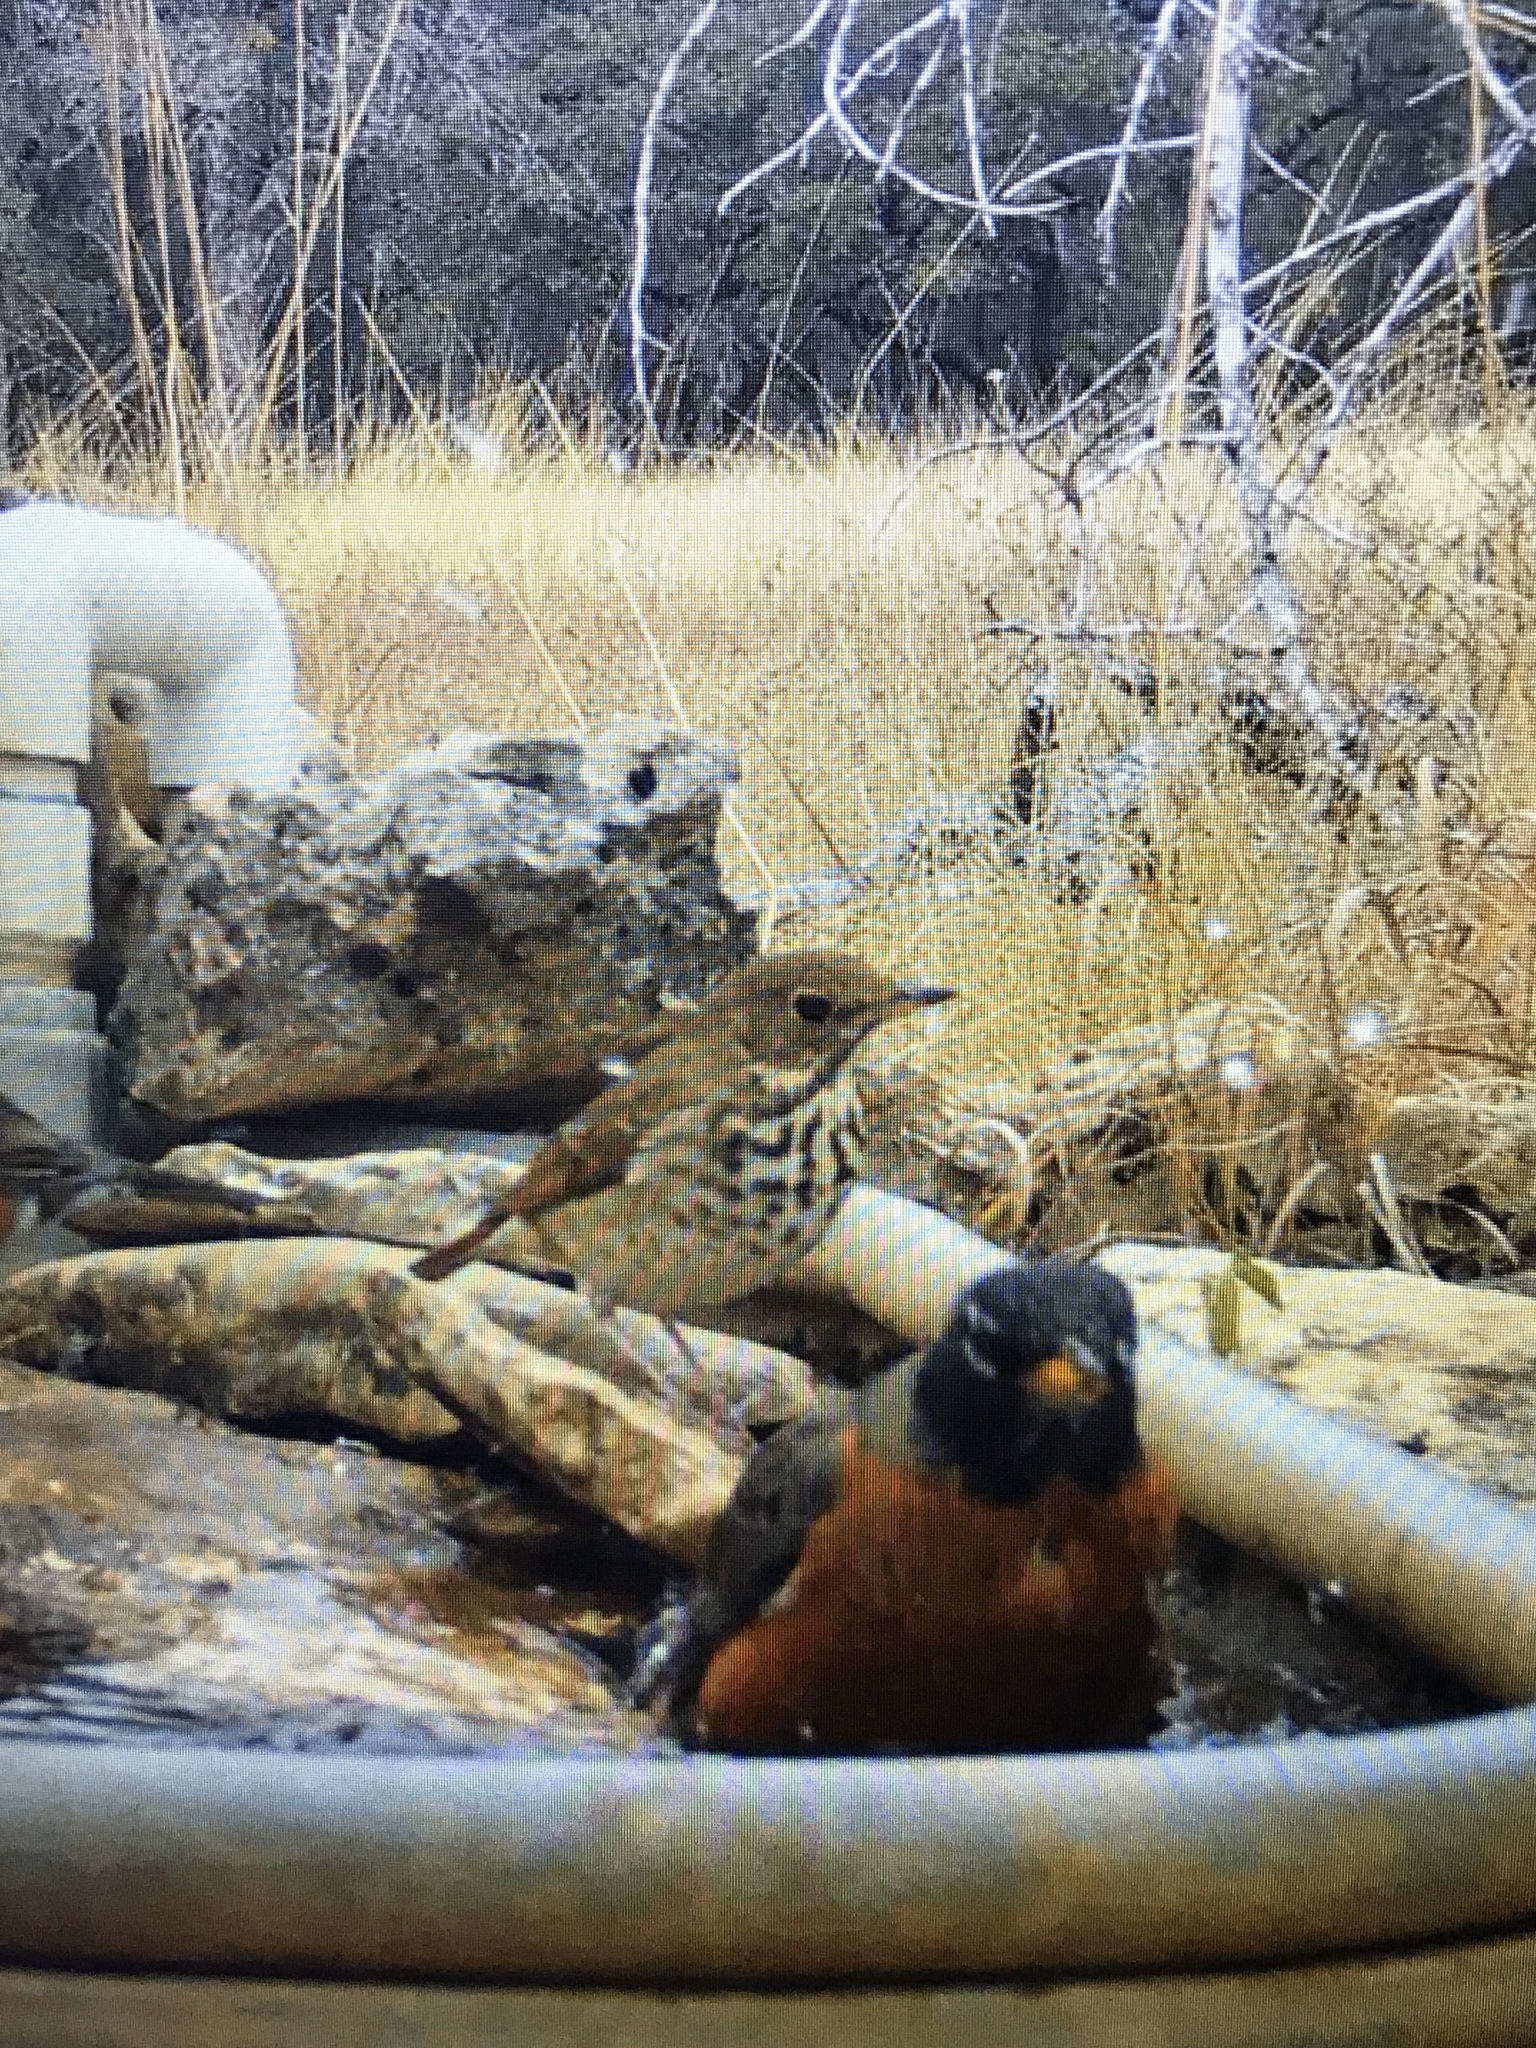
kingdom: Animalia
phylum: Chordata
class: Aves
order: Passeriformes
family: Turdidae
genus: Catharus
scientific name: Catharus guttatus
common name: Hermit thrush
